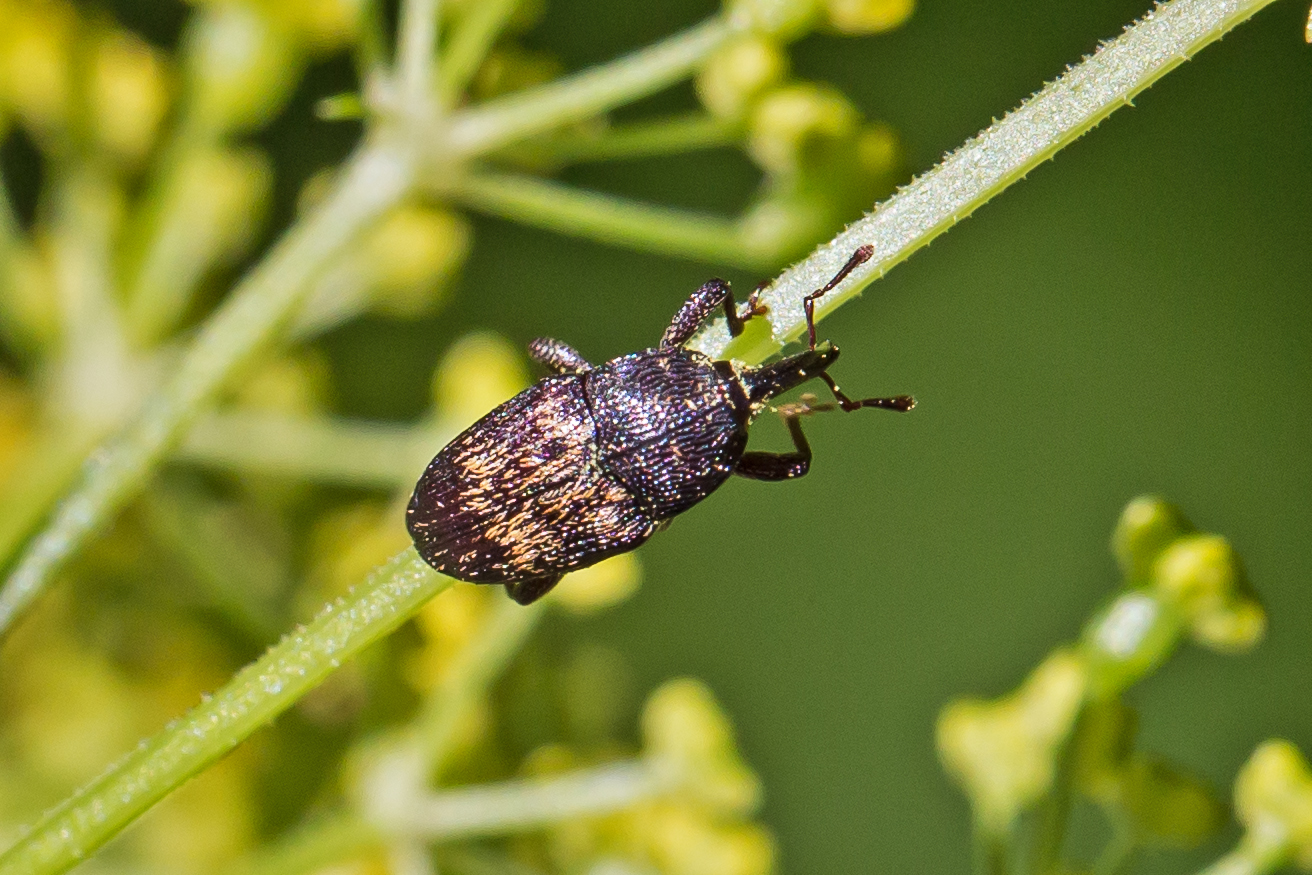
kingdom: Animalia
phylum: Arthropoda
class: Insecta
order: Coleoptera
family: Curculionidae
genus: Glyptobaris
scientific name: Glyptobaris lecontei
